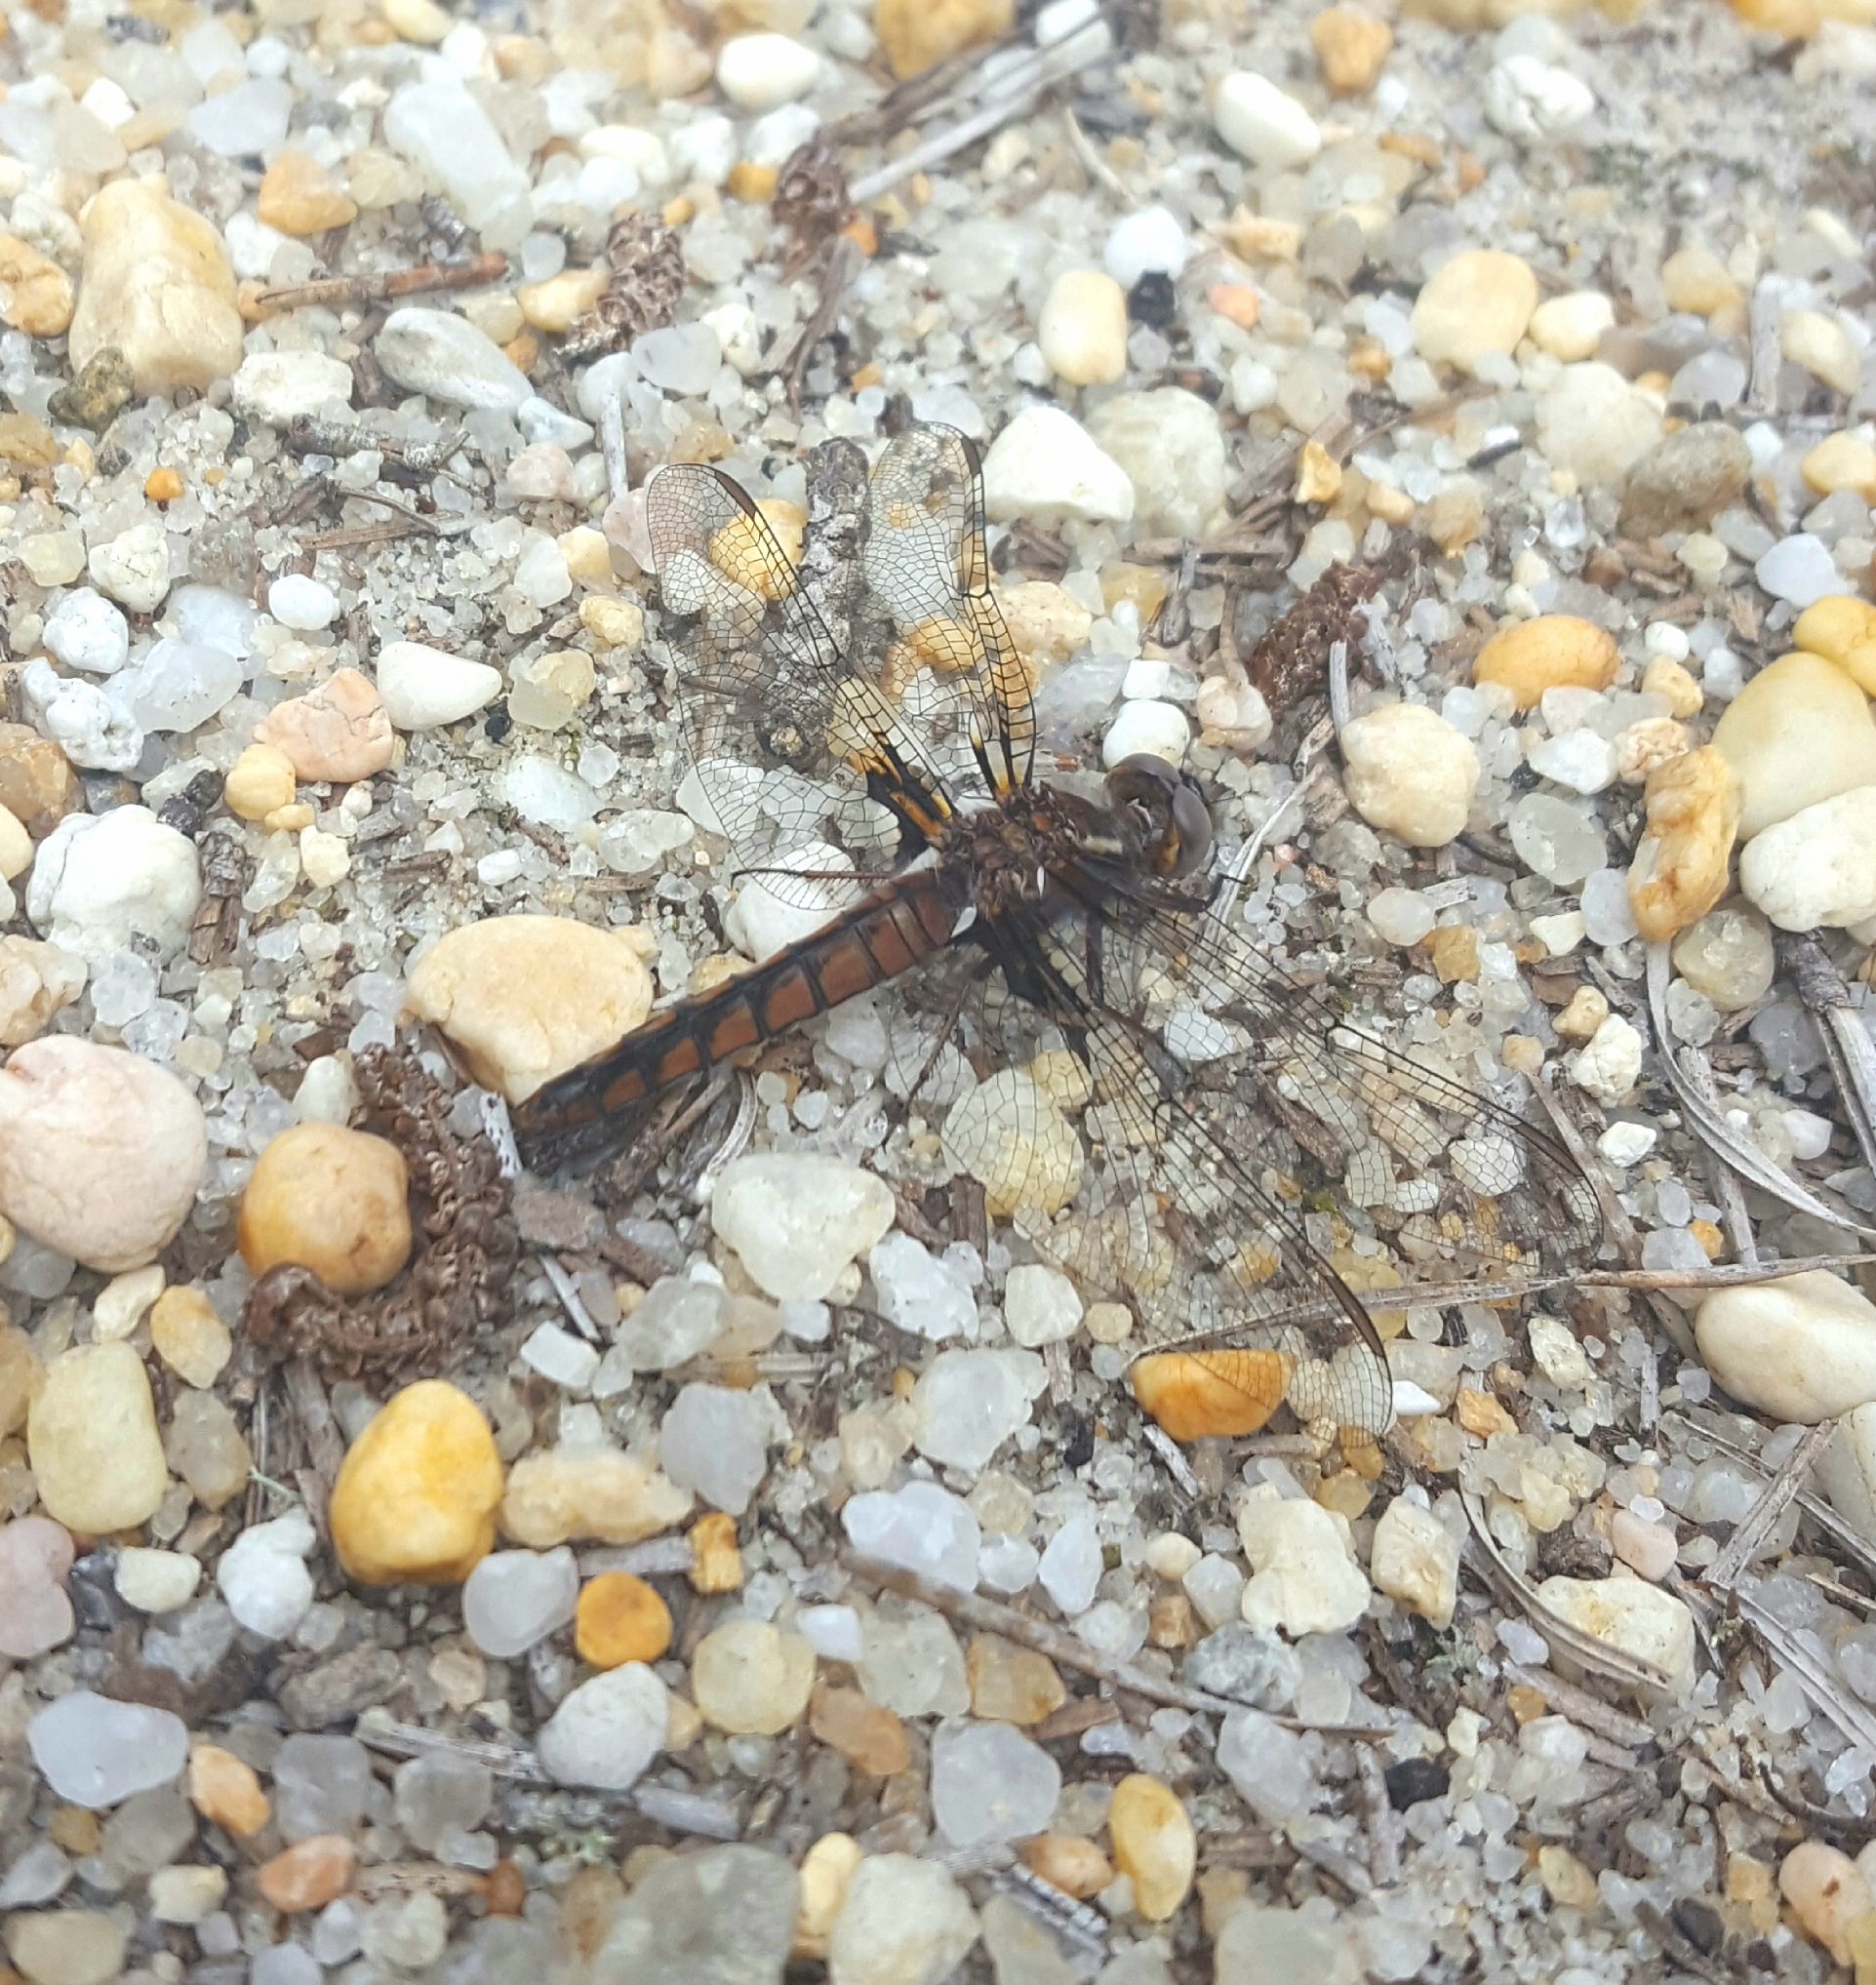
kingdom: Animalia
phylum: Arthropoda
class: Insecta
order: Odonata
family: Libellulidae
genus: Ladona
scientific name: Ladona deplanata
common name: Blue corporal
